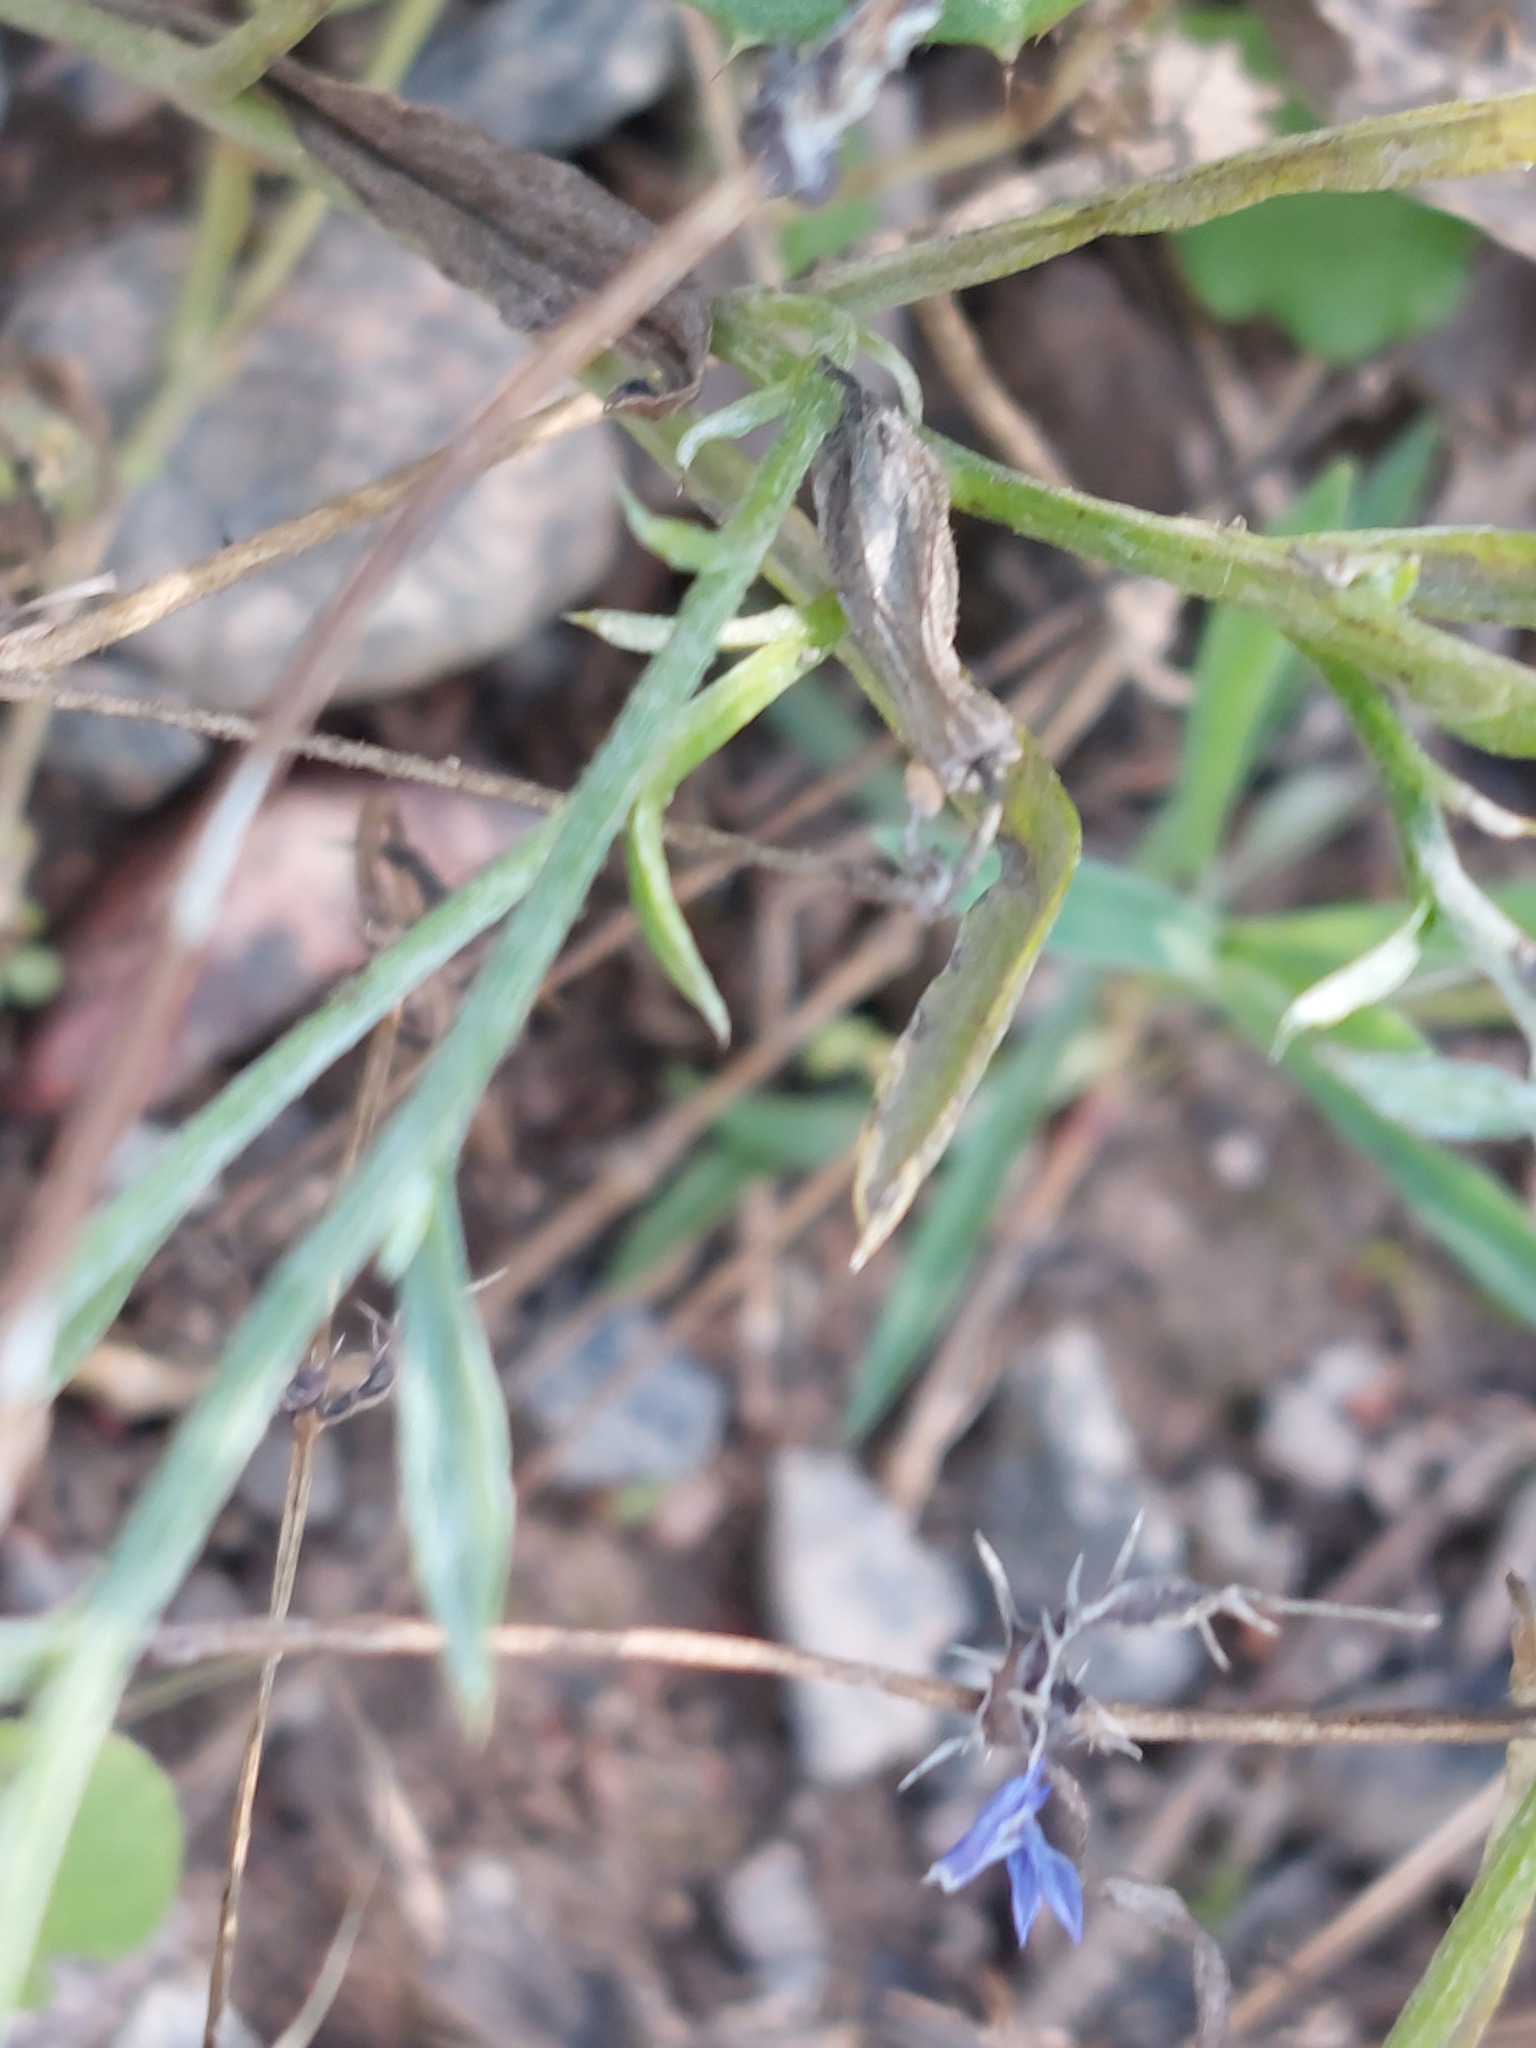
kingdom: Plantae
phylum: Tracheophyta
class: Magnoliopsida
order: Asterales
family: Asteraceae
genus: Centaurea
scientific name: Centaurea cyanus
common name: Cornflower
